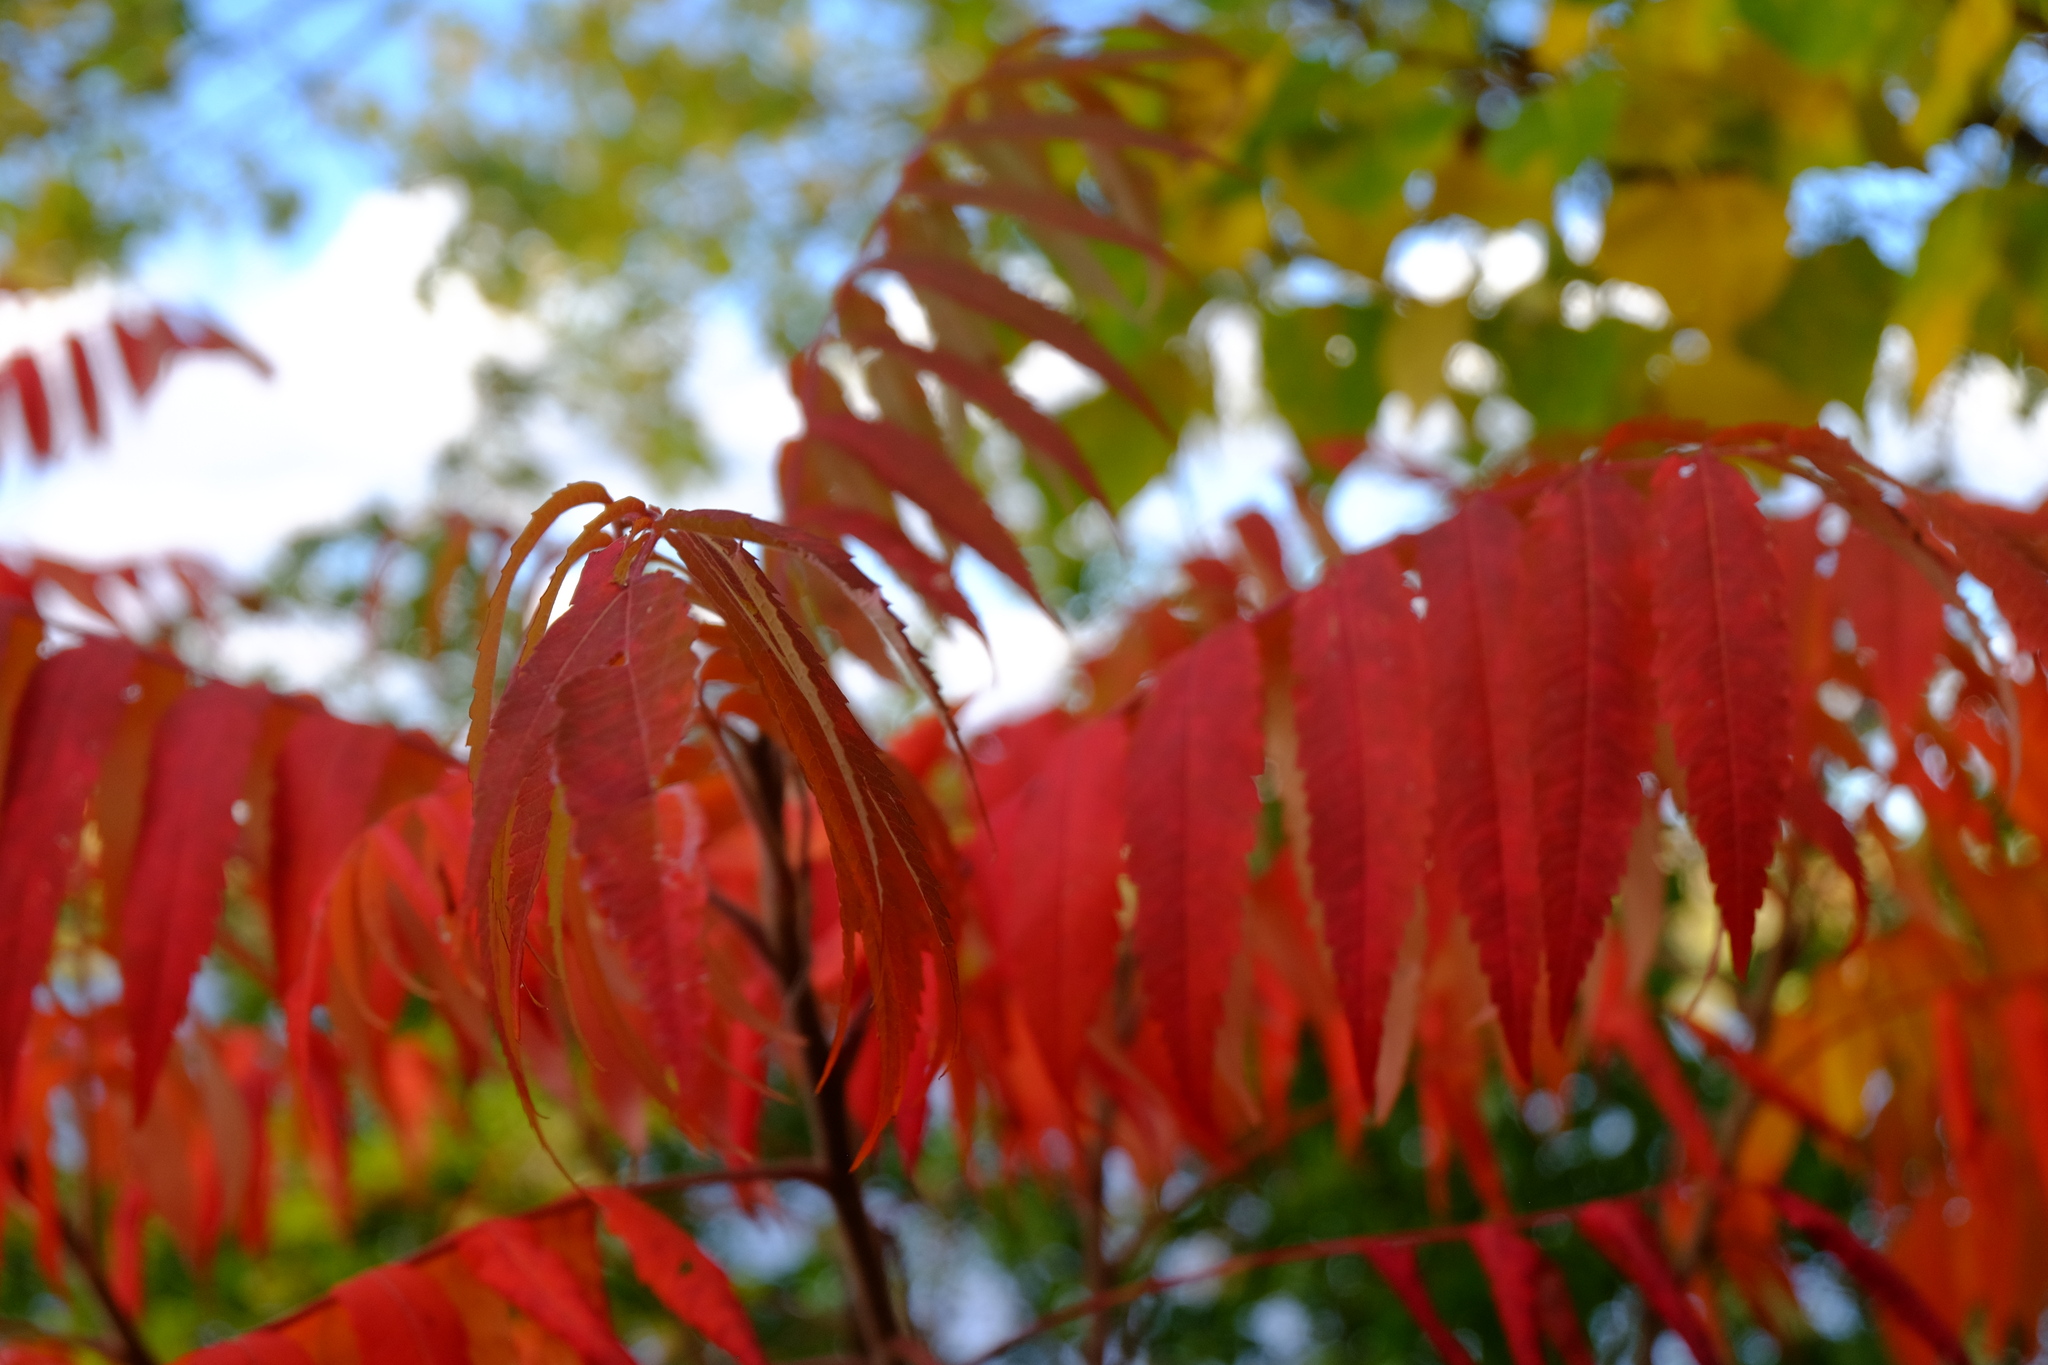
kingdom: Plantae
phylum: Tracheophyta
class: Magnoliopsida
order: Sapindales
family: Anacardiaceae
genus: Rhus
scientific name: Rhus typhina
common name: Staghorn sumac
